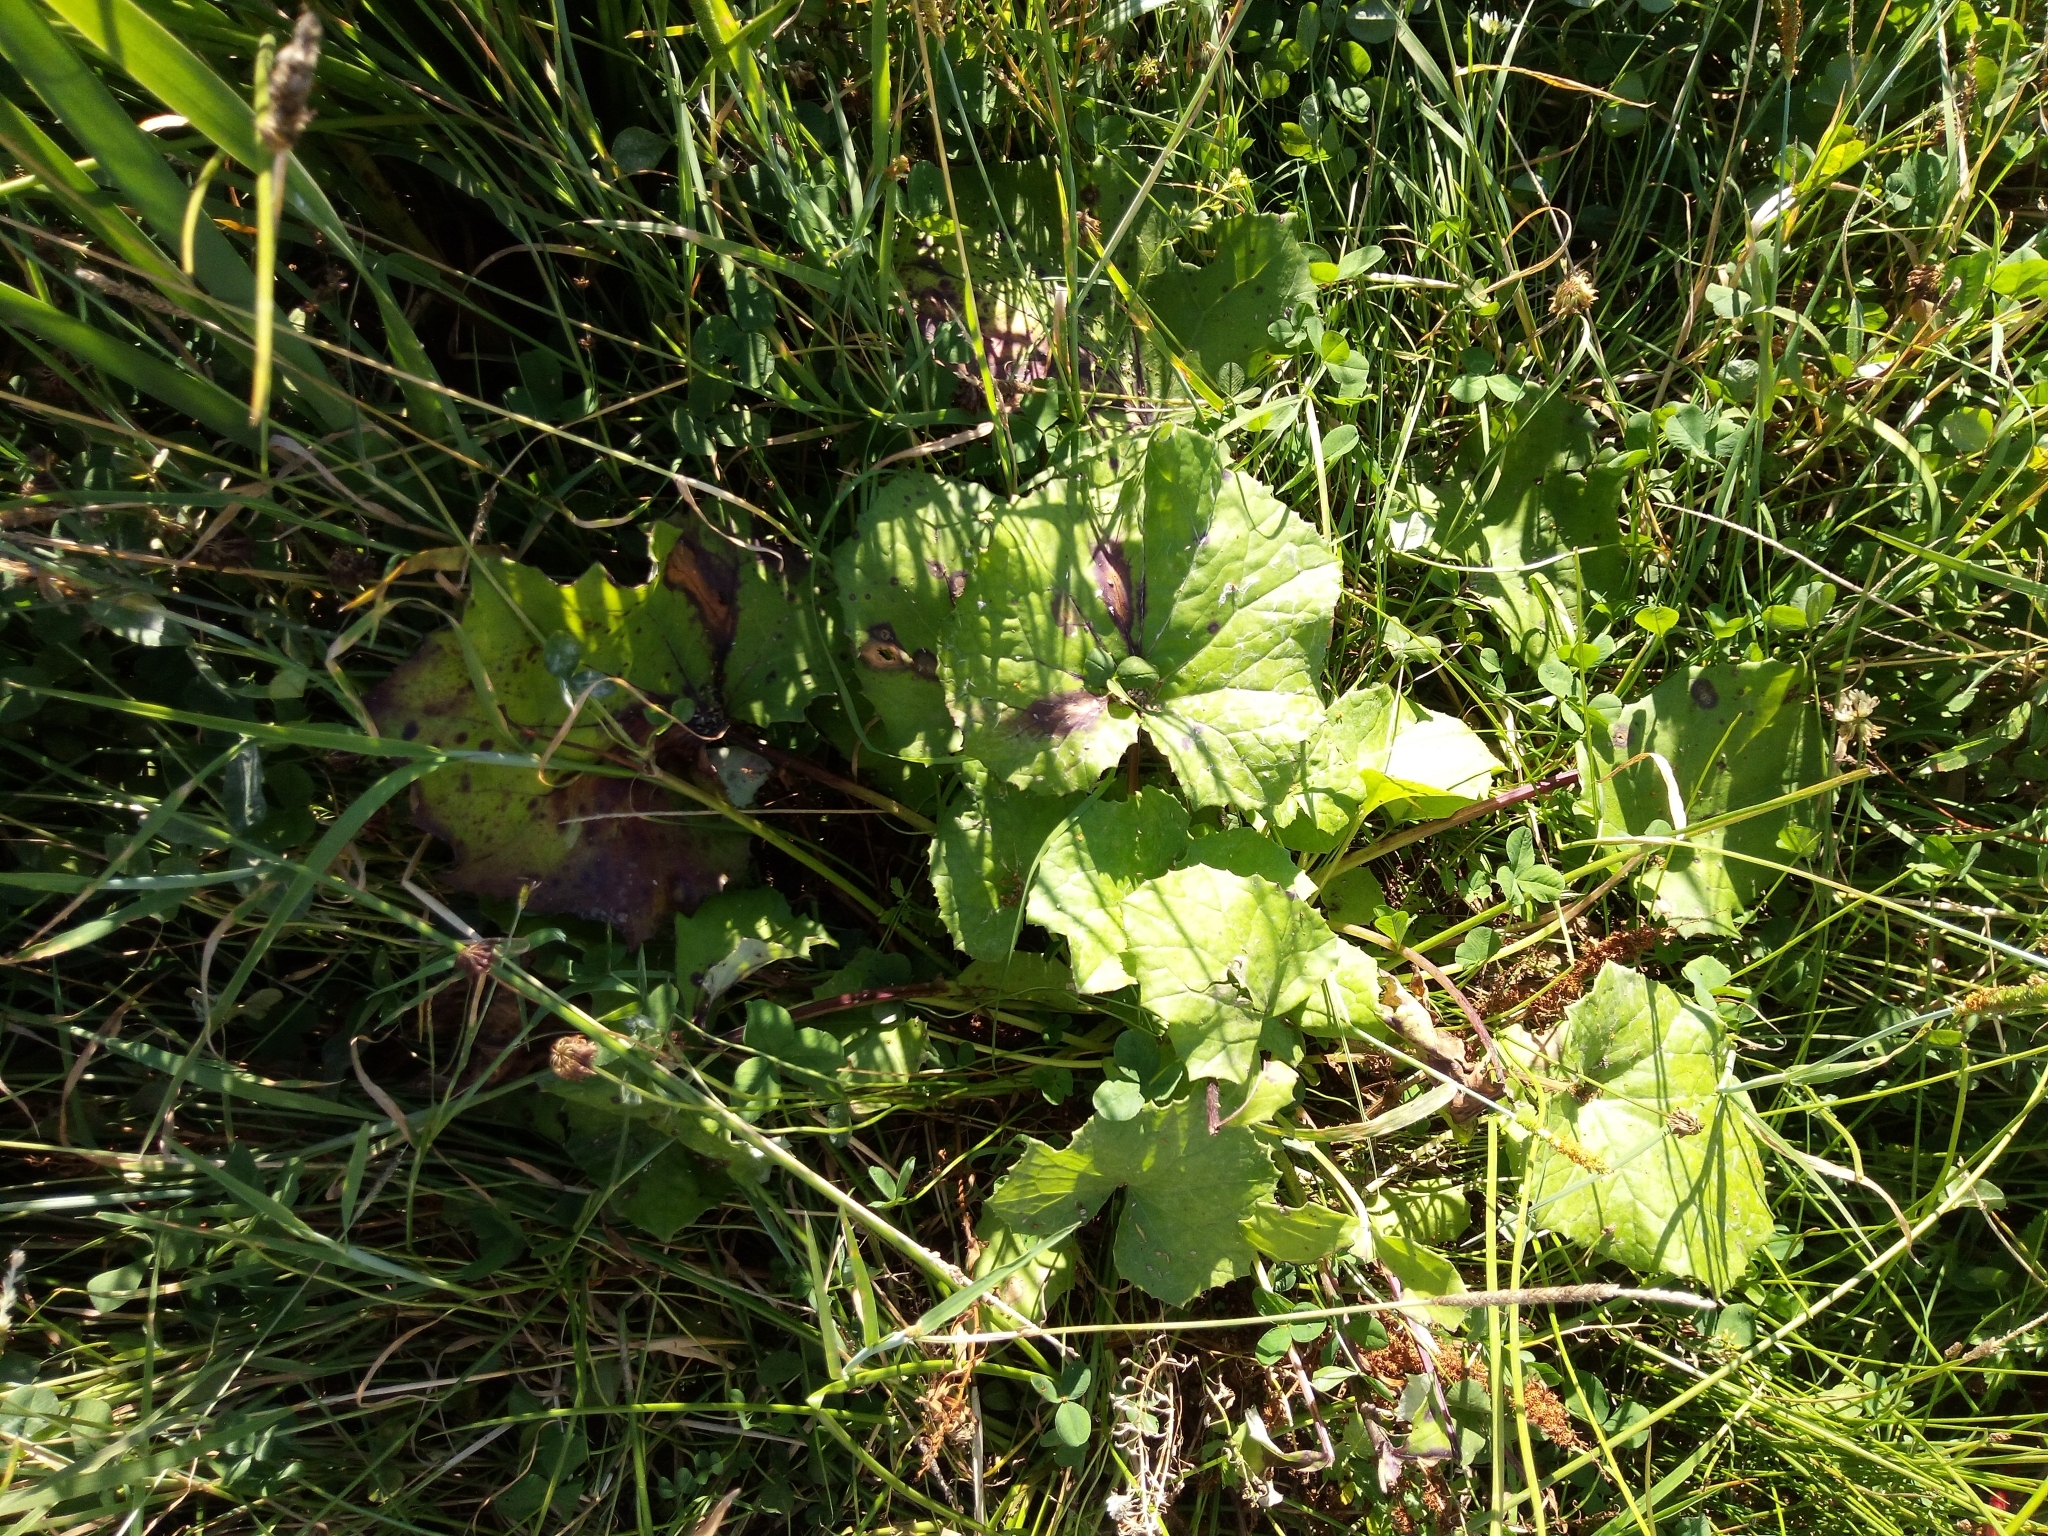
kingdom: Plantae
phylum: Tracheophyta
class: Magnoliopsida
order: Asterales
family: Asteraceae
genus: Tussilago
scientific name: Tussilago farfara
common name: Coltsfoot
